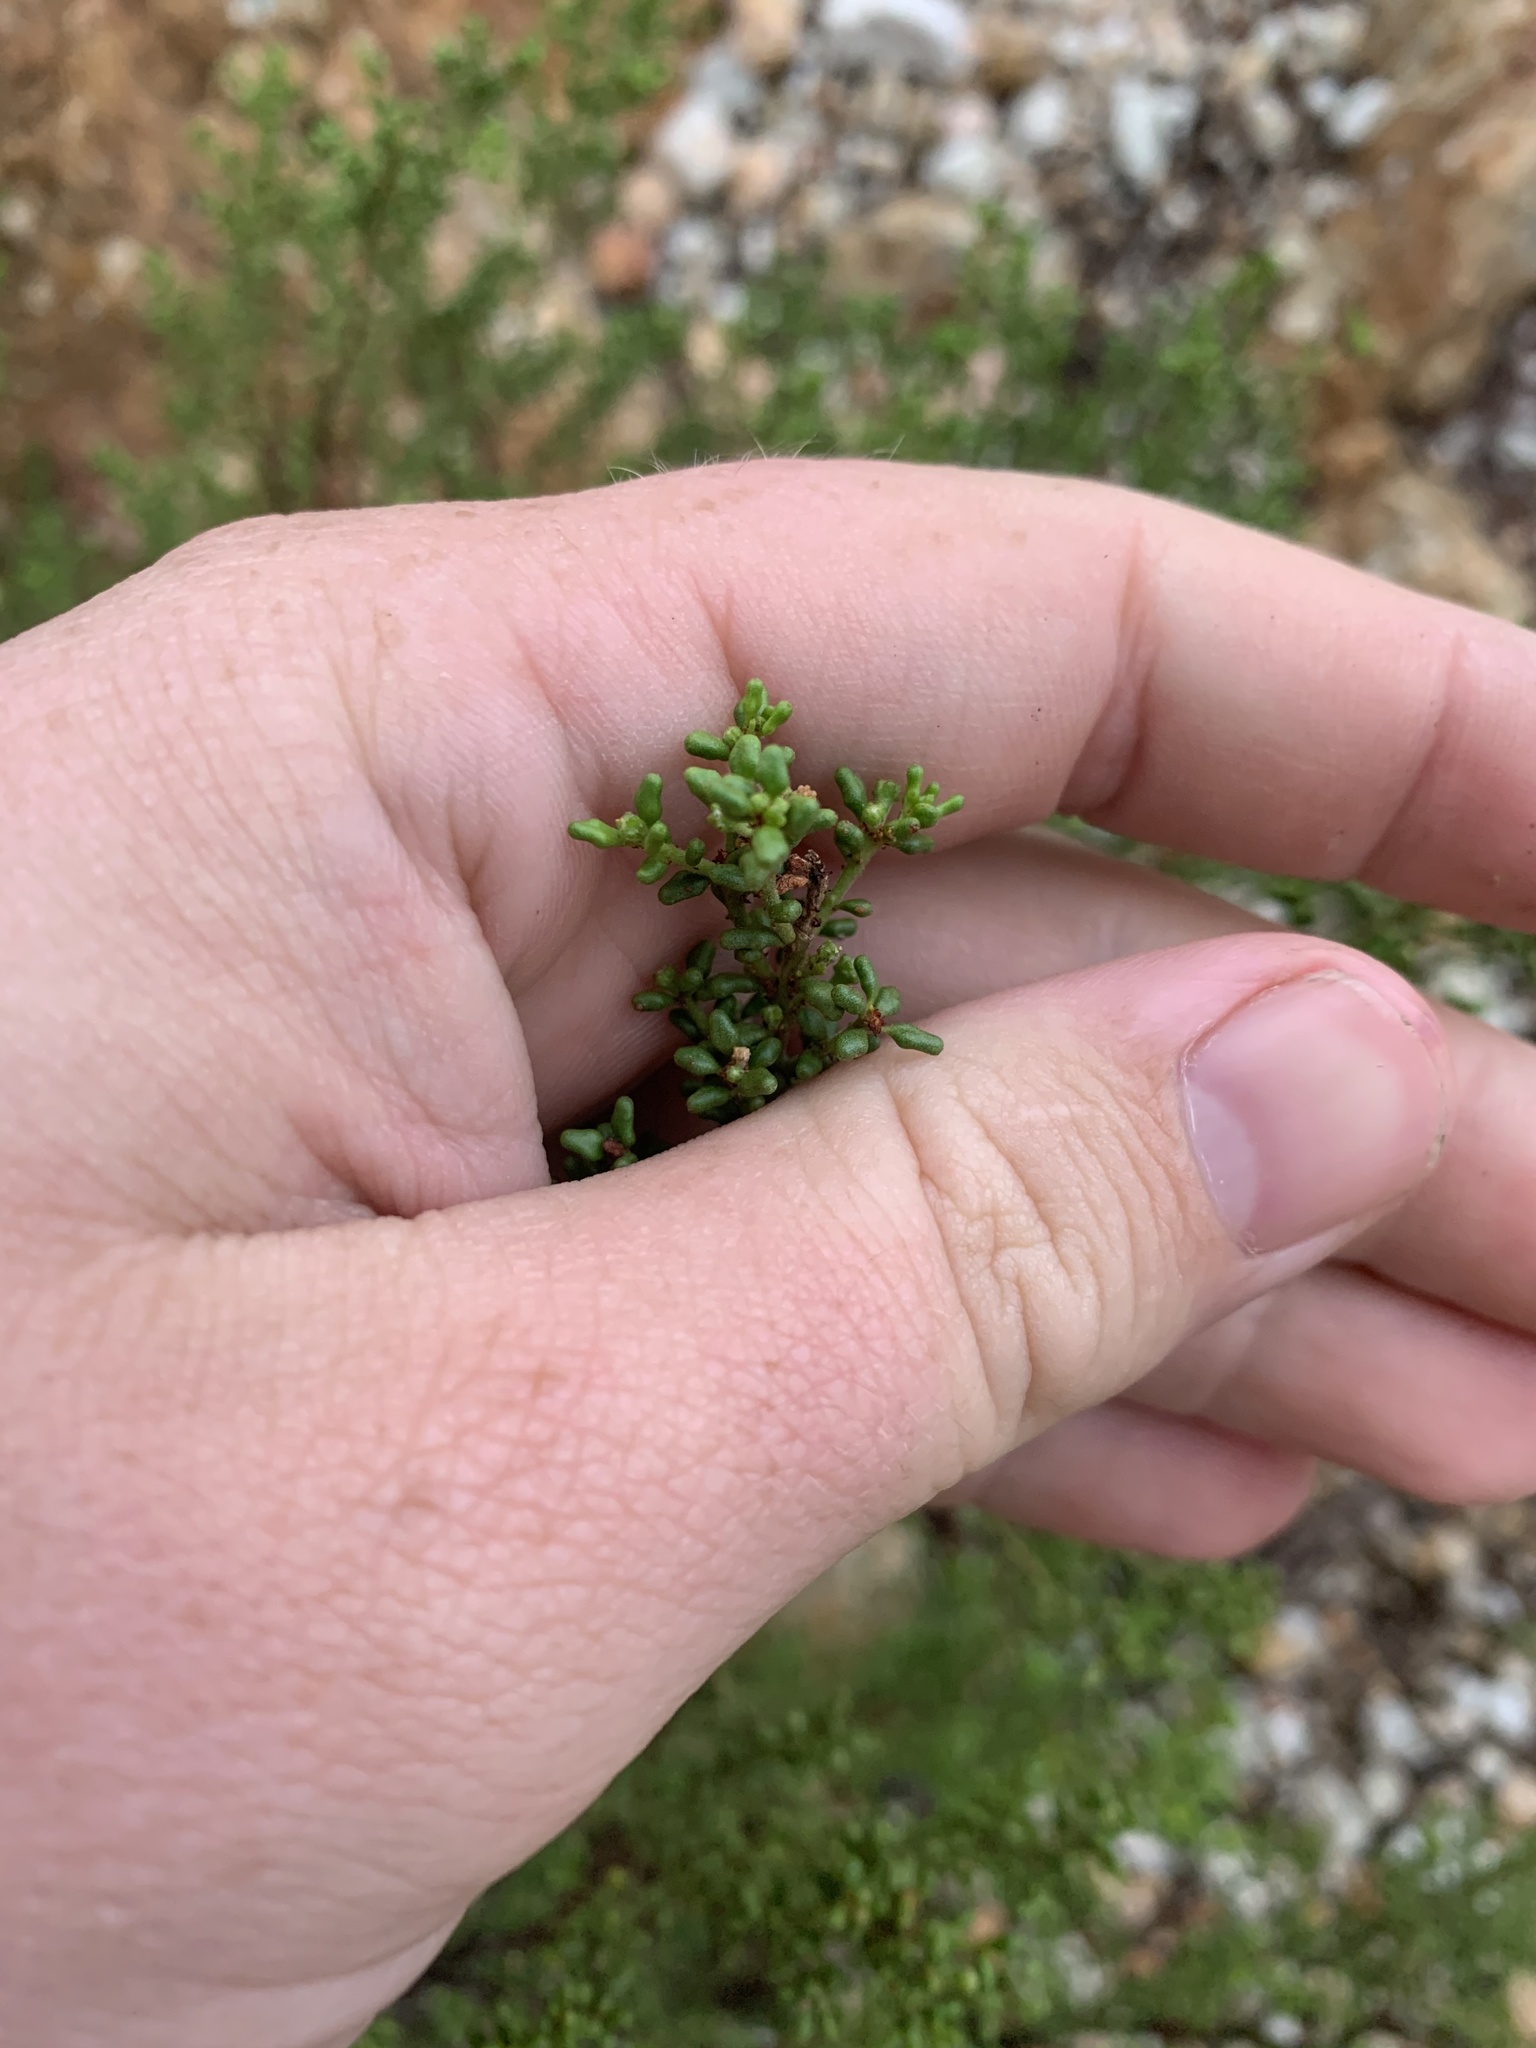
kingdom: Plantae
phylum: Tracheophyta
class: Magnoliopsida
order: Sapindales
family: Rutaceae
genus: Philotheca
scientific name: Philotheca difformis
